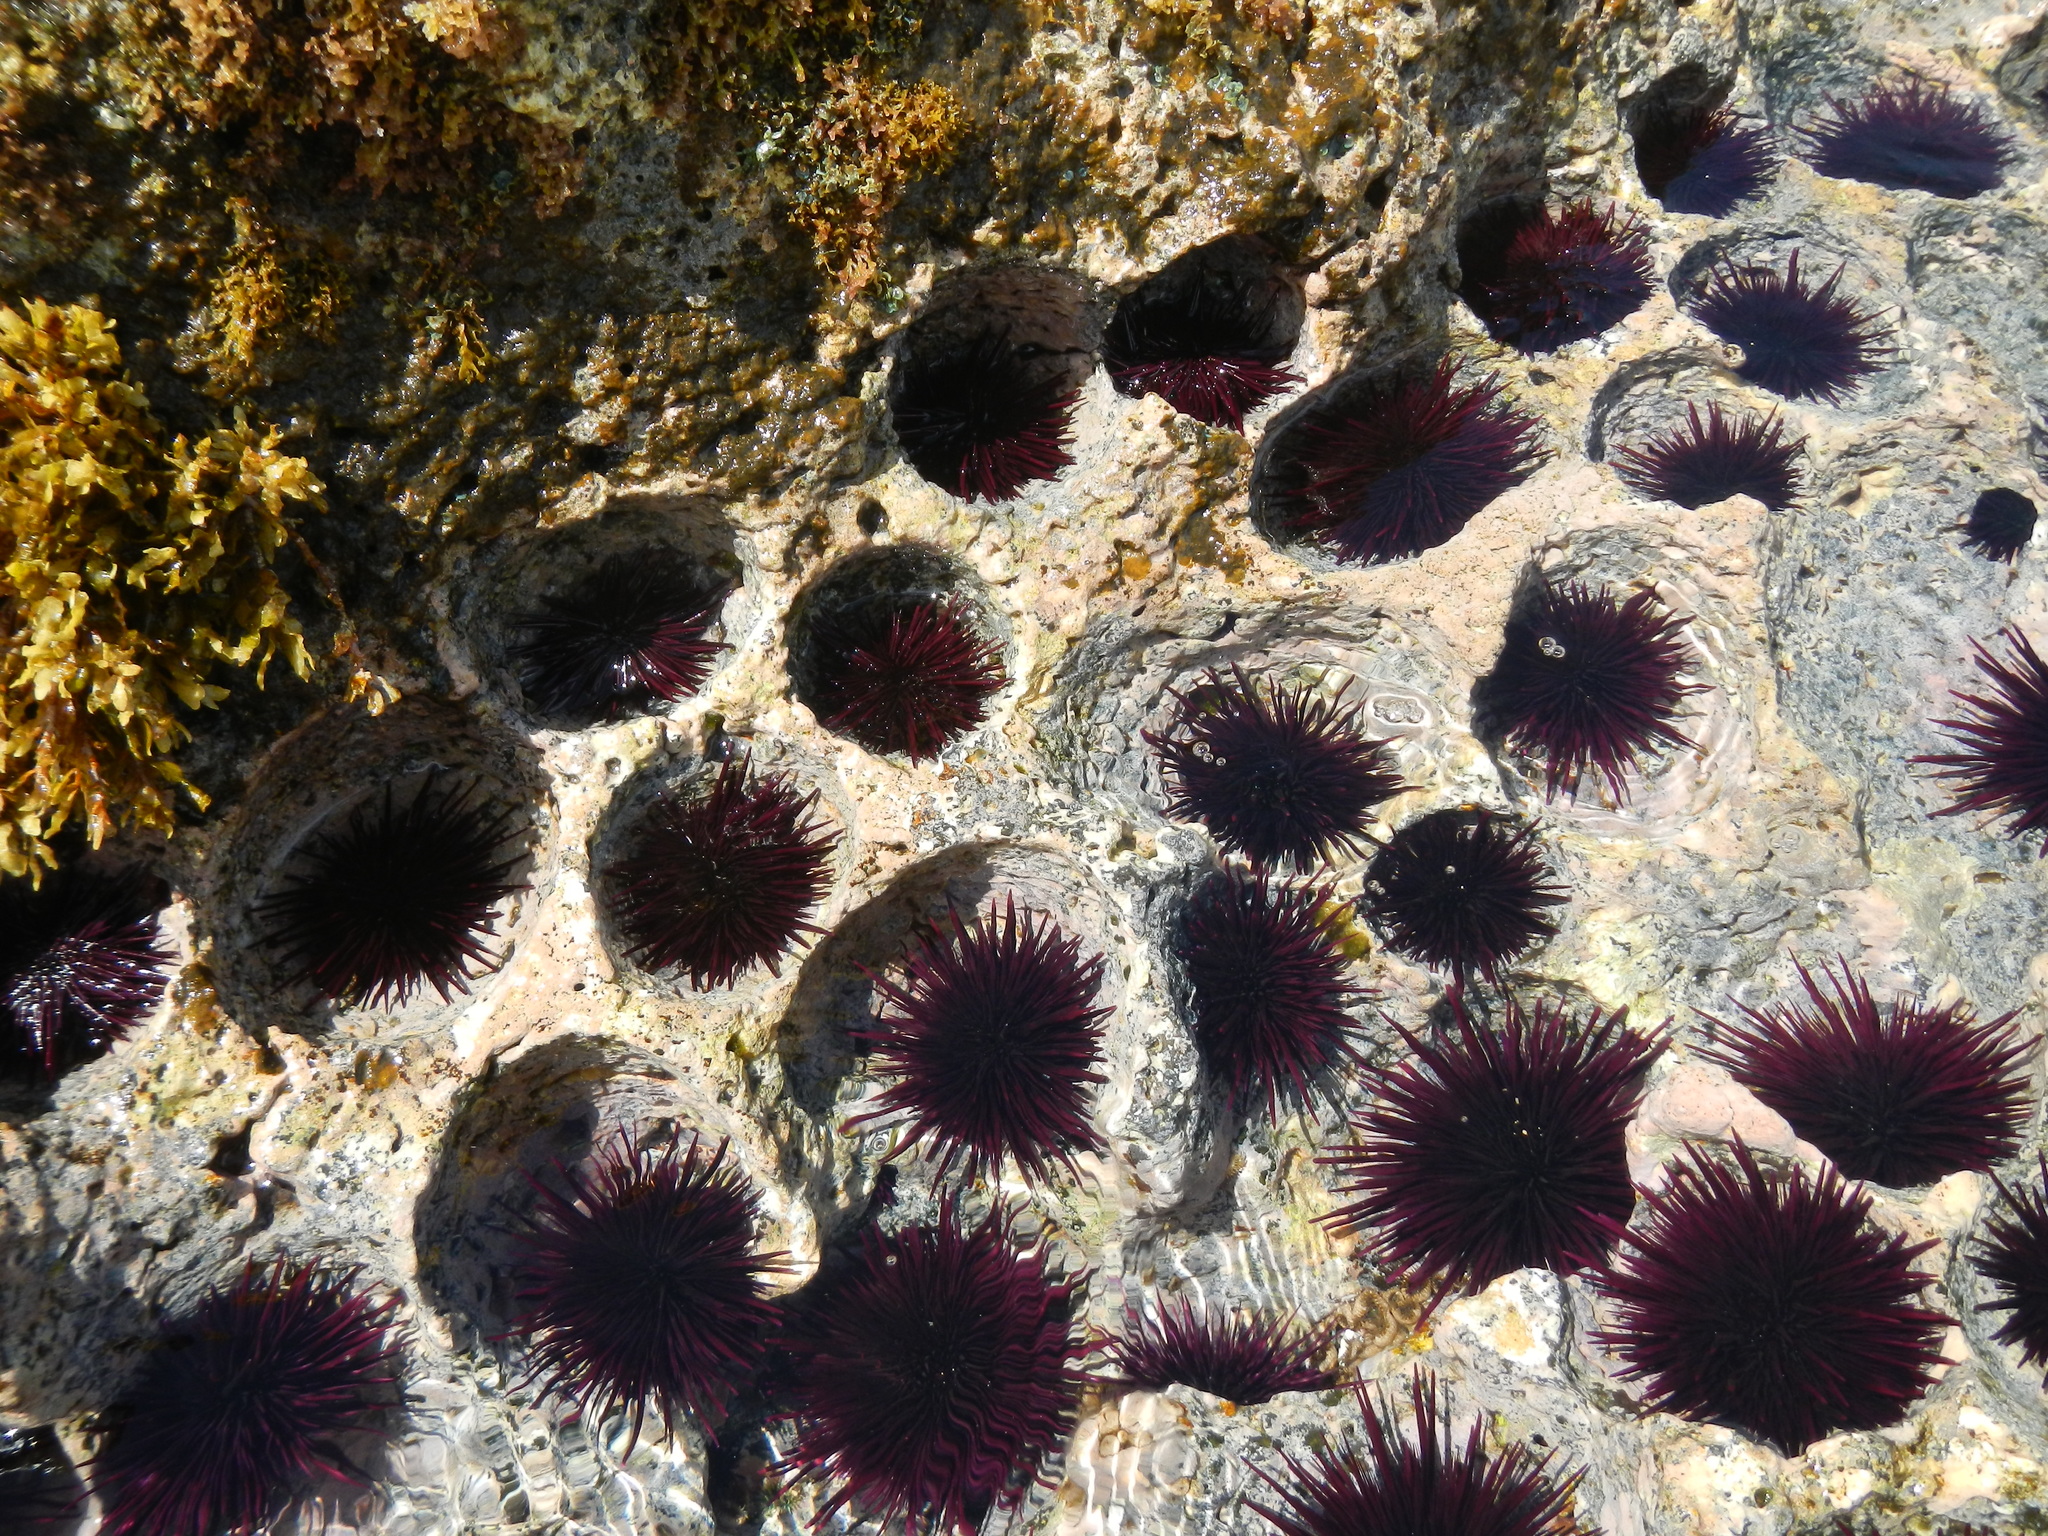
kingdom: Animalia
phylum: Echinodermata
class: Echinoidea
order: Camarodonta
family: Echinometridae
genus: Echinometra
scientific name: Echinometra insularis
